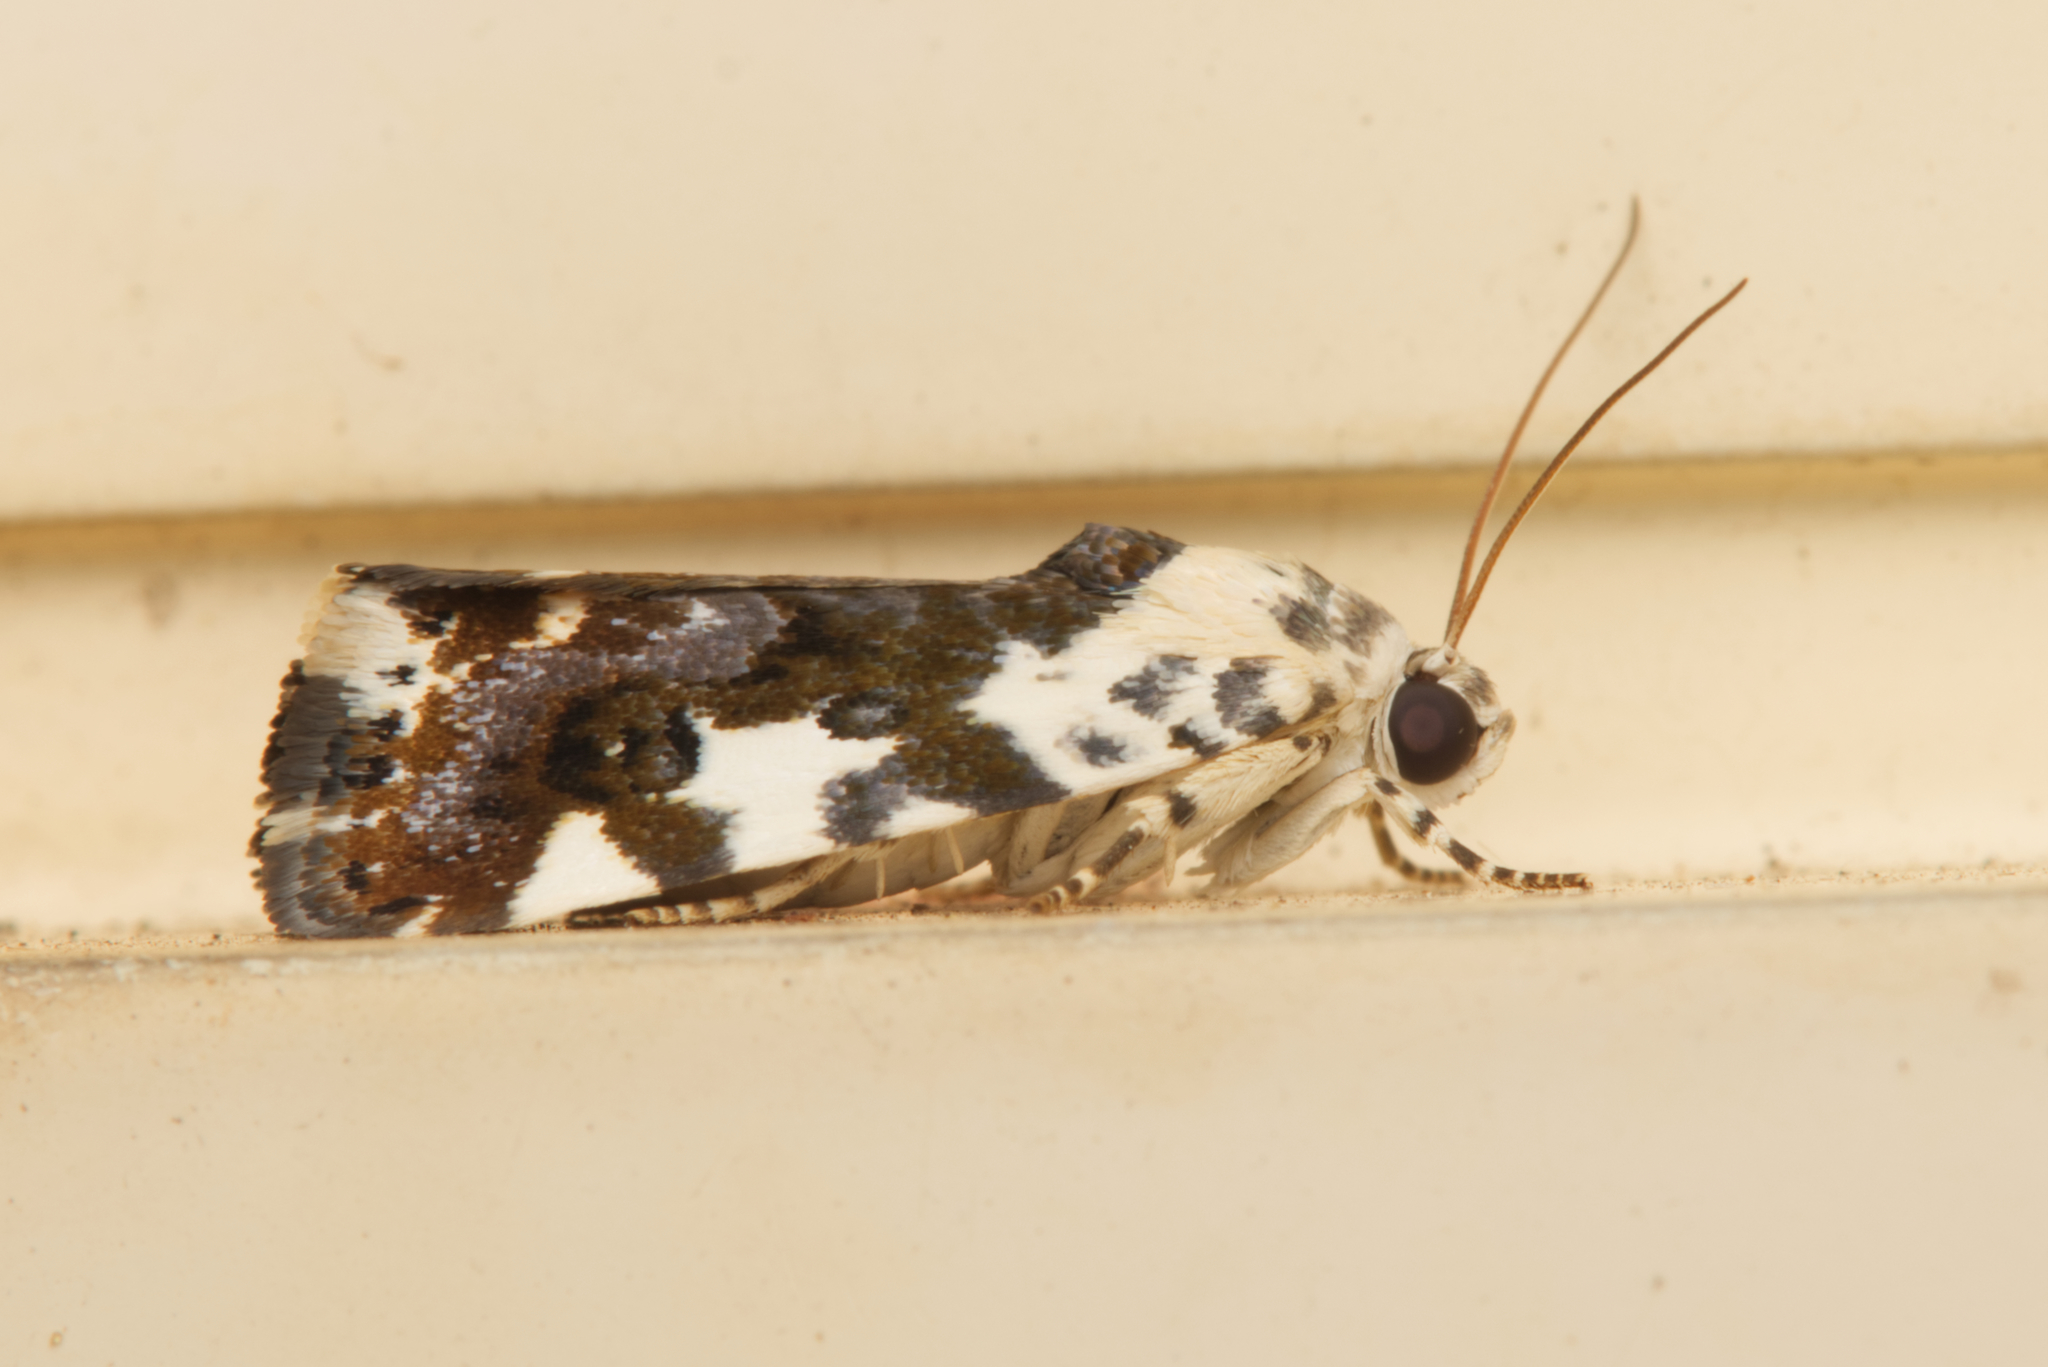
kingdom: Animalia
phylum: Arthropoda
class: Insecta
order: Lepidoptera
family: Noctuidae
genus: Acontia
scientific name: Acontia nivipicta
